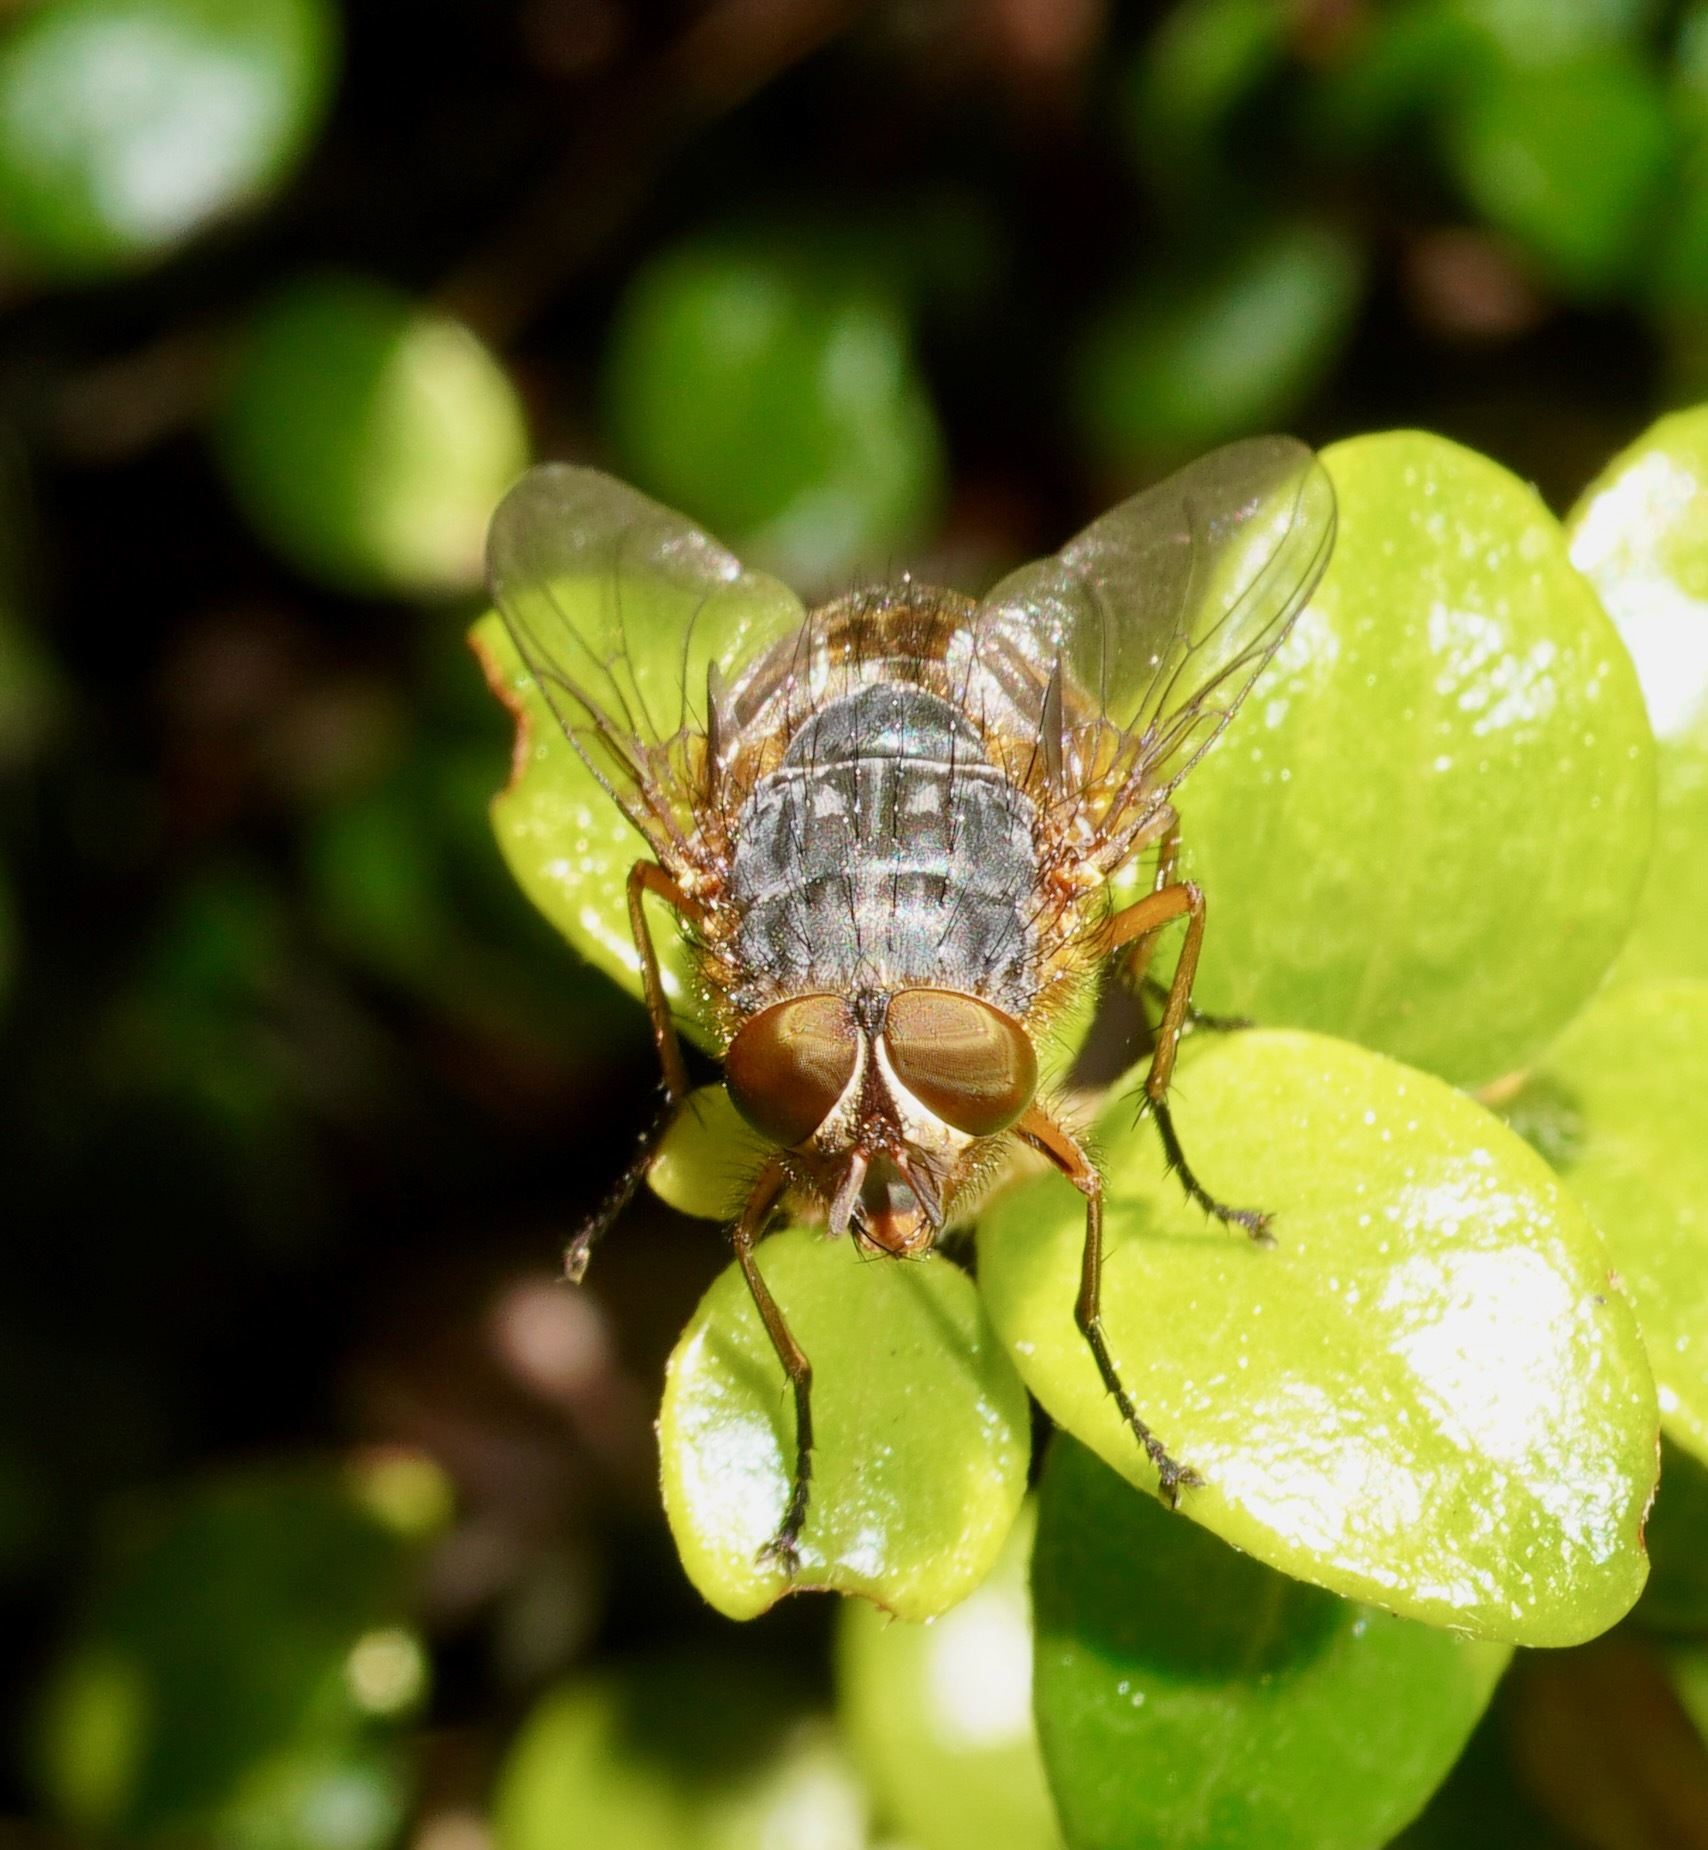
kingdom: Animalia
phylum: Arthropoda
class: Insecta
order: Diptera
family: Calliphoridae
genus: Calliphora
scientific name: Calliphora hilli
